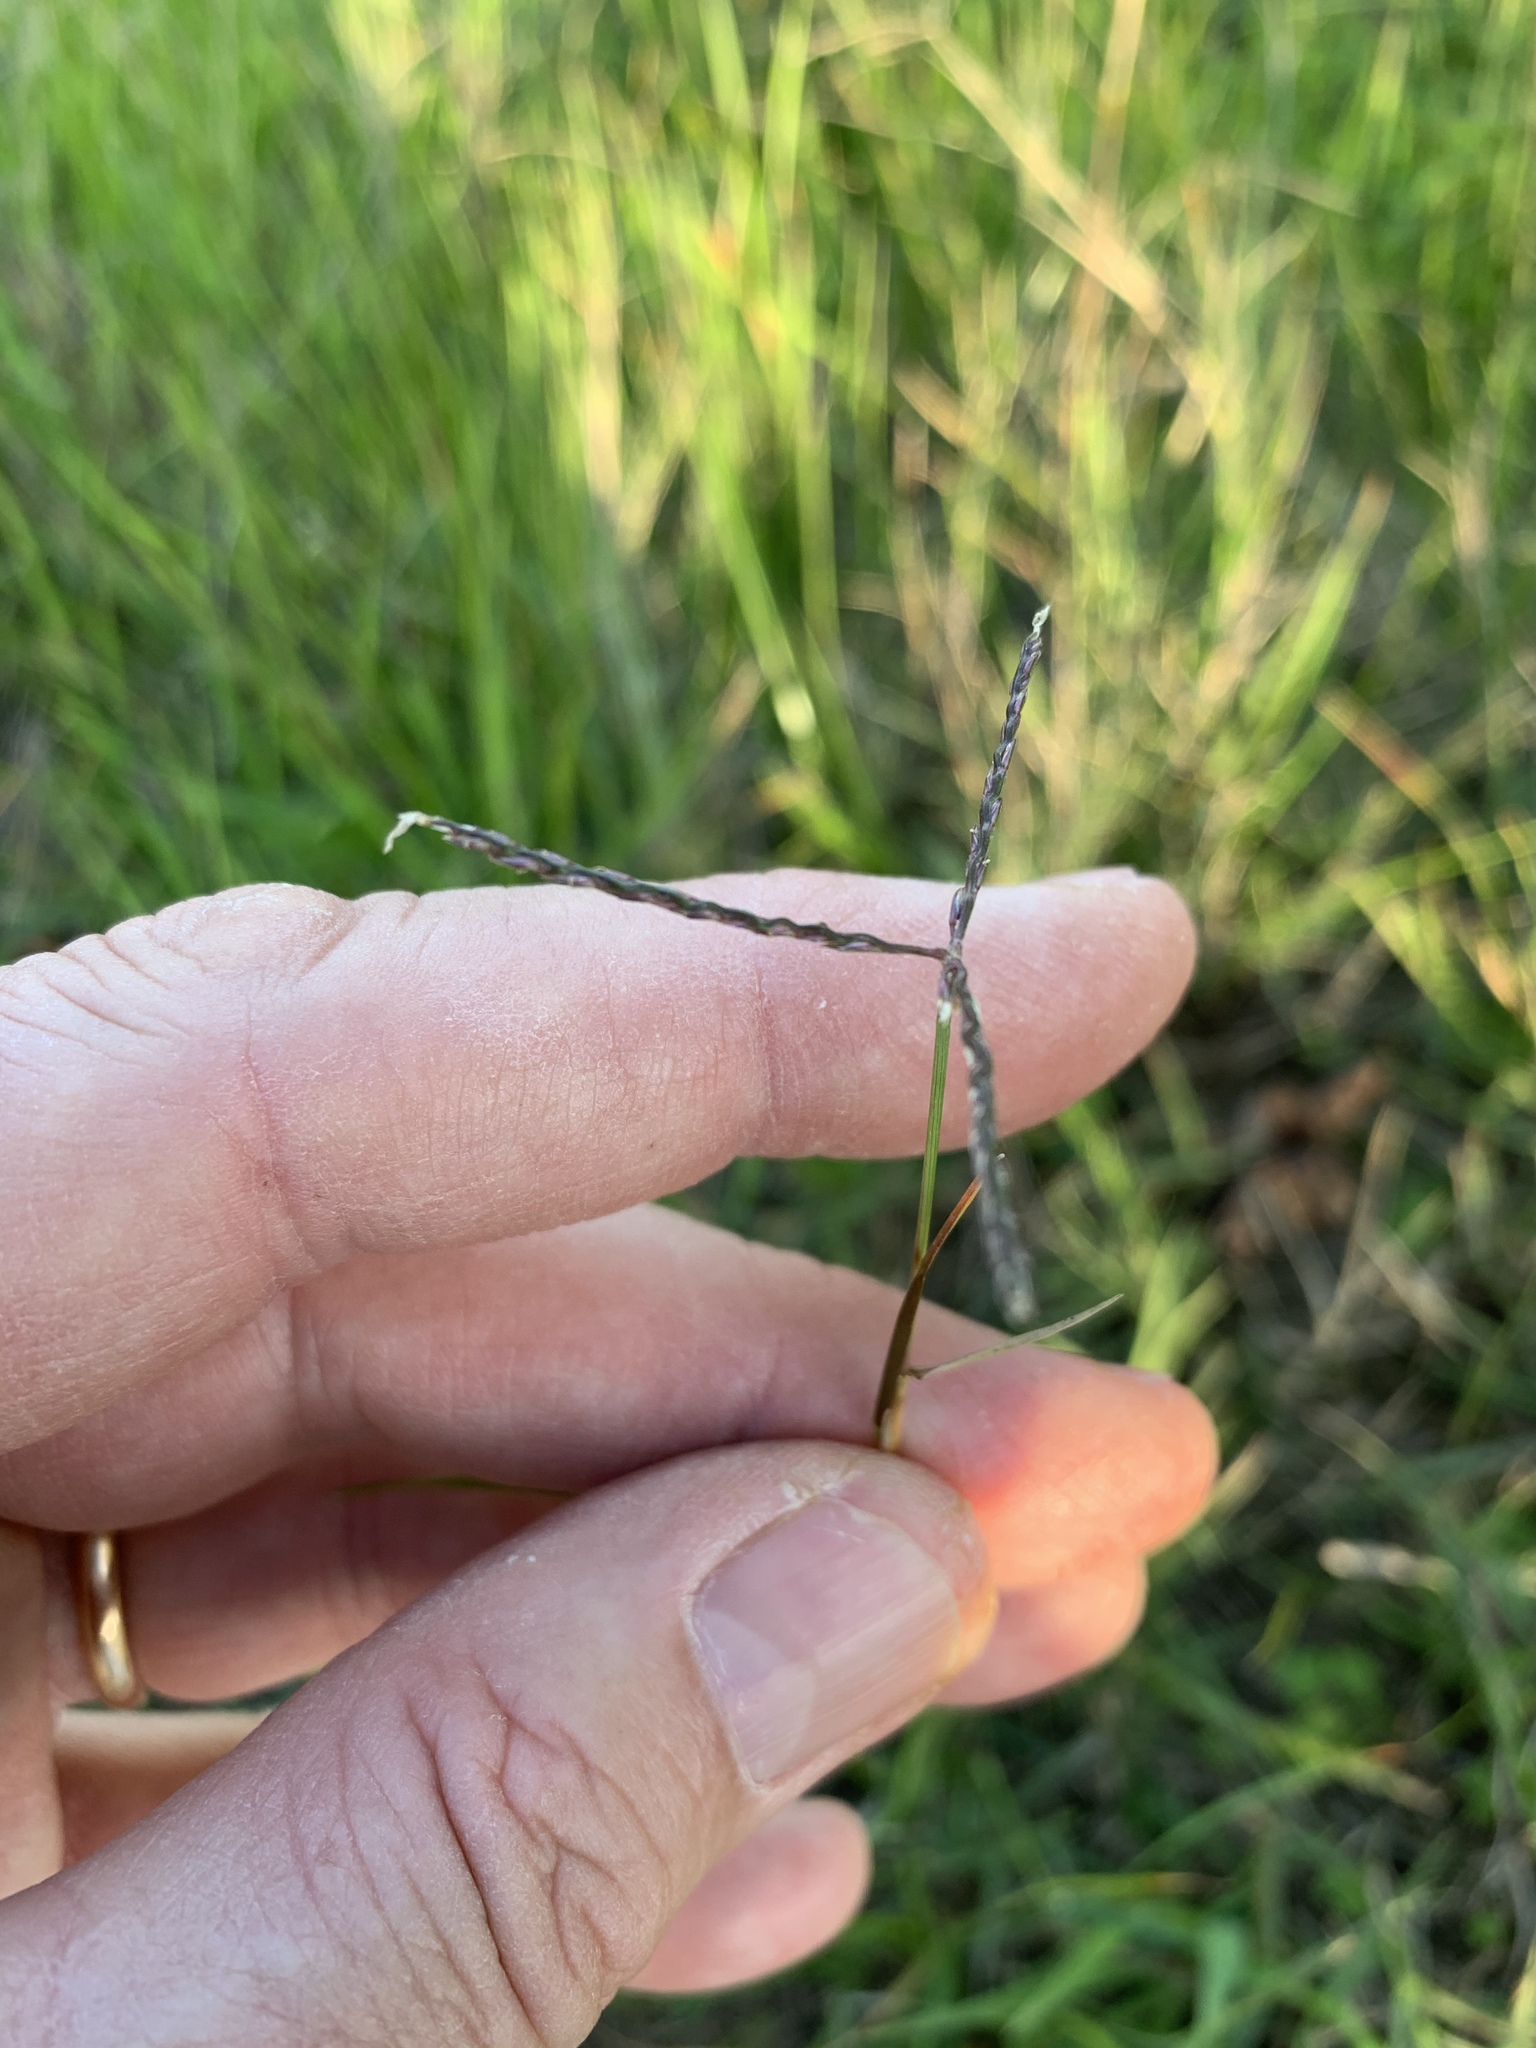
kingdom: Plantae
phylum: Tracheophyta
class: Liliopsida
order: Poales
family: Poaceae
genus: Cynodon
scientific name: Cynodon dactylon
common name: Bermuda grass
